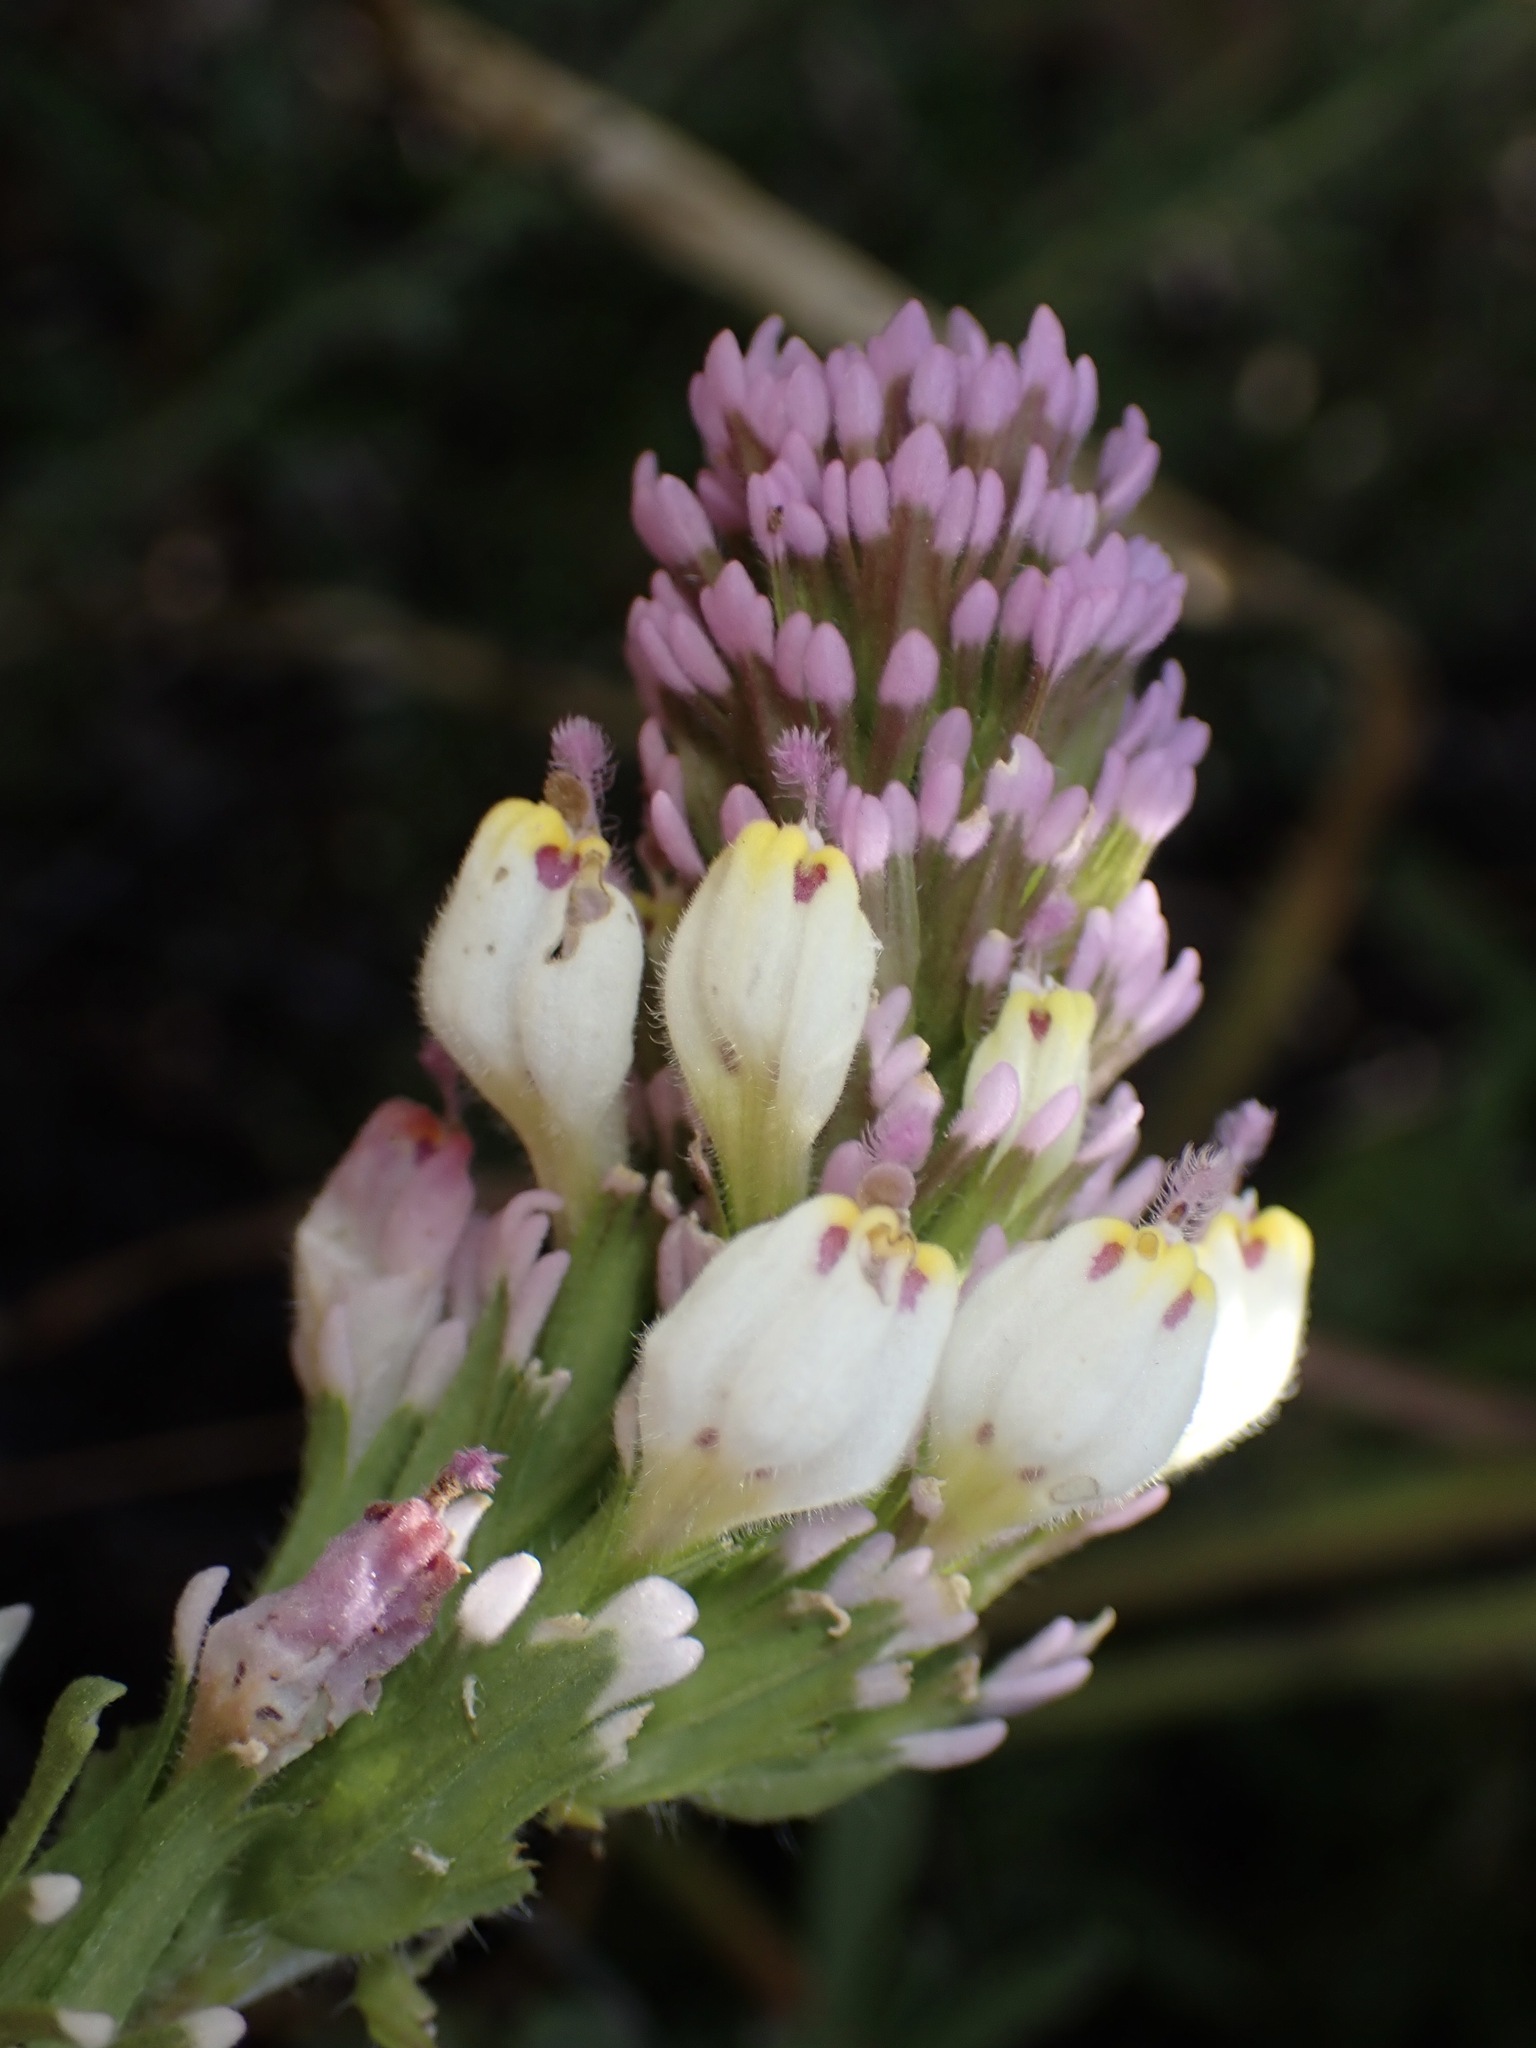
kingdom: Plantae
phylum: Tracheophyta
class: Magnoliopsida
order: Lamiales
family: Orobanchaceae
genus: Castilleja
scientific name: Castilleja exserta
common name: Purple owl-clover
